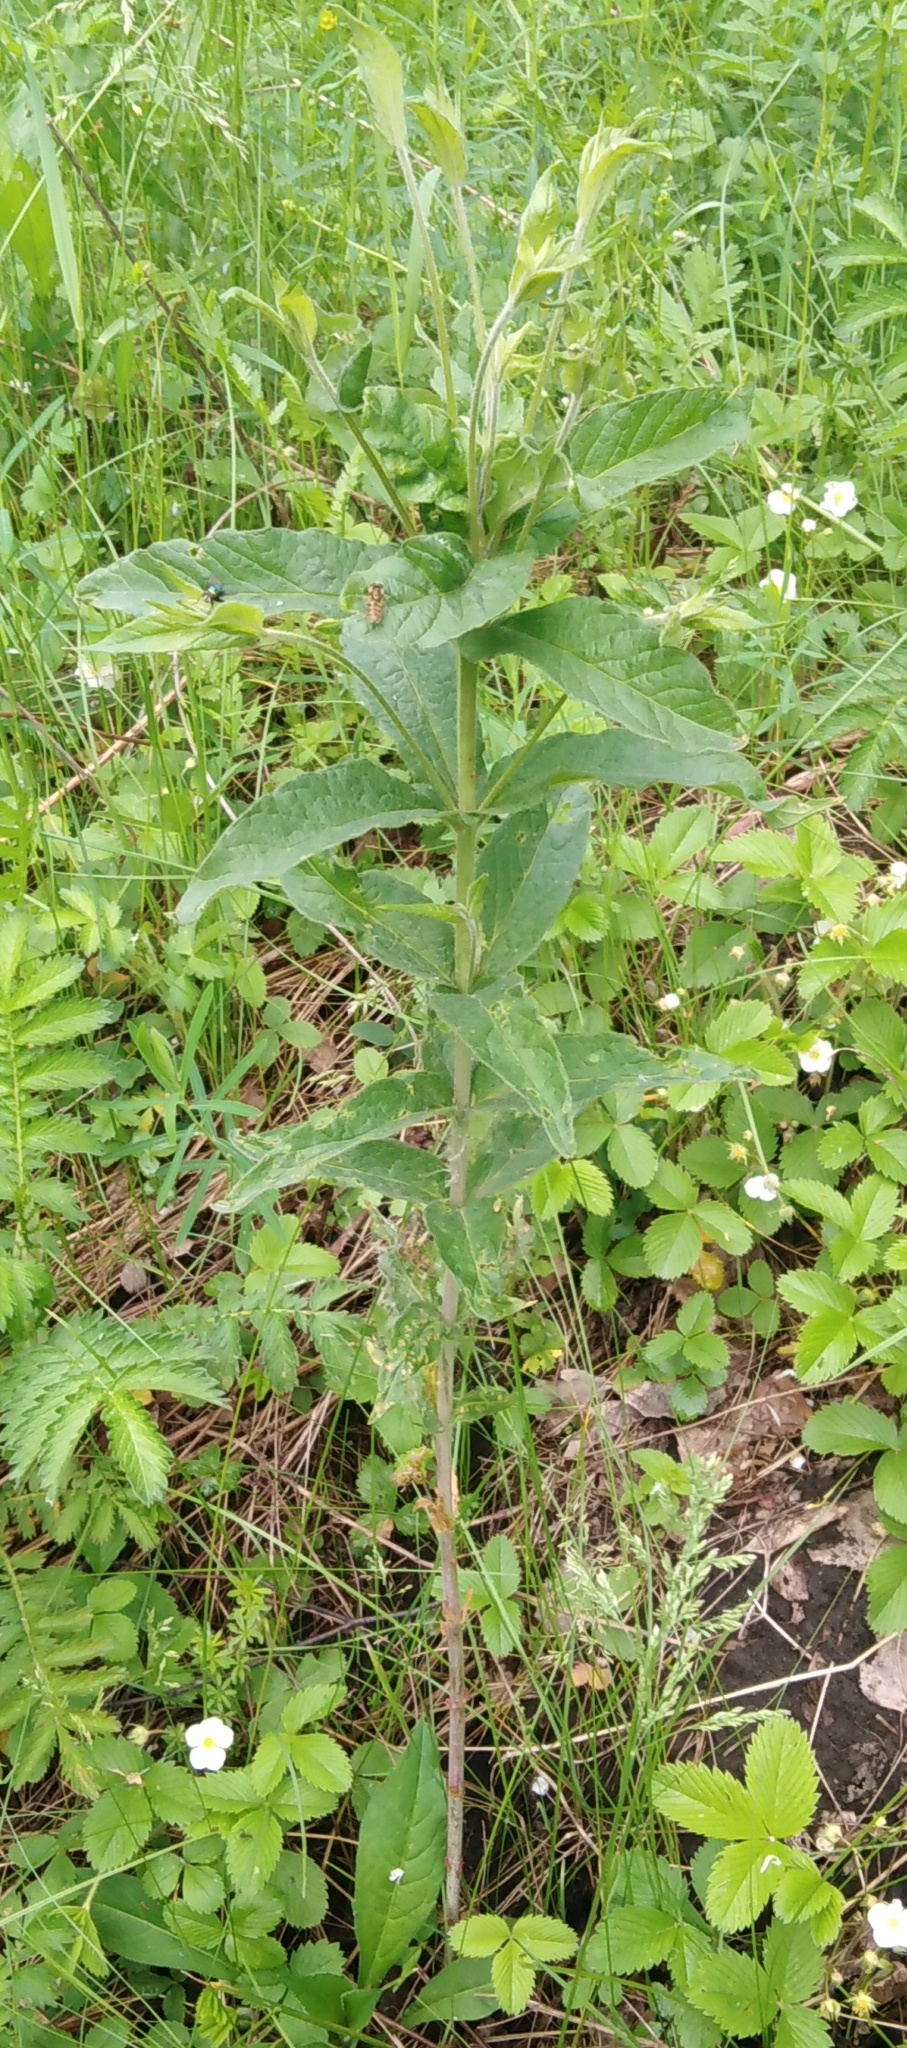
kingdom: Plantae
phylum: Tracheophyta
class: Magnoliopsida
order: Ericales
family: Primulaceae
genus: Lysimachia
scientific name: Lysimachia vulgaris
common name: Yellow loosestrife
